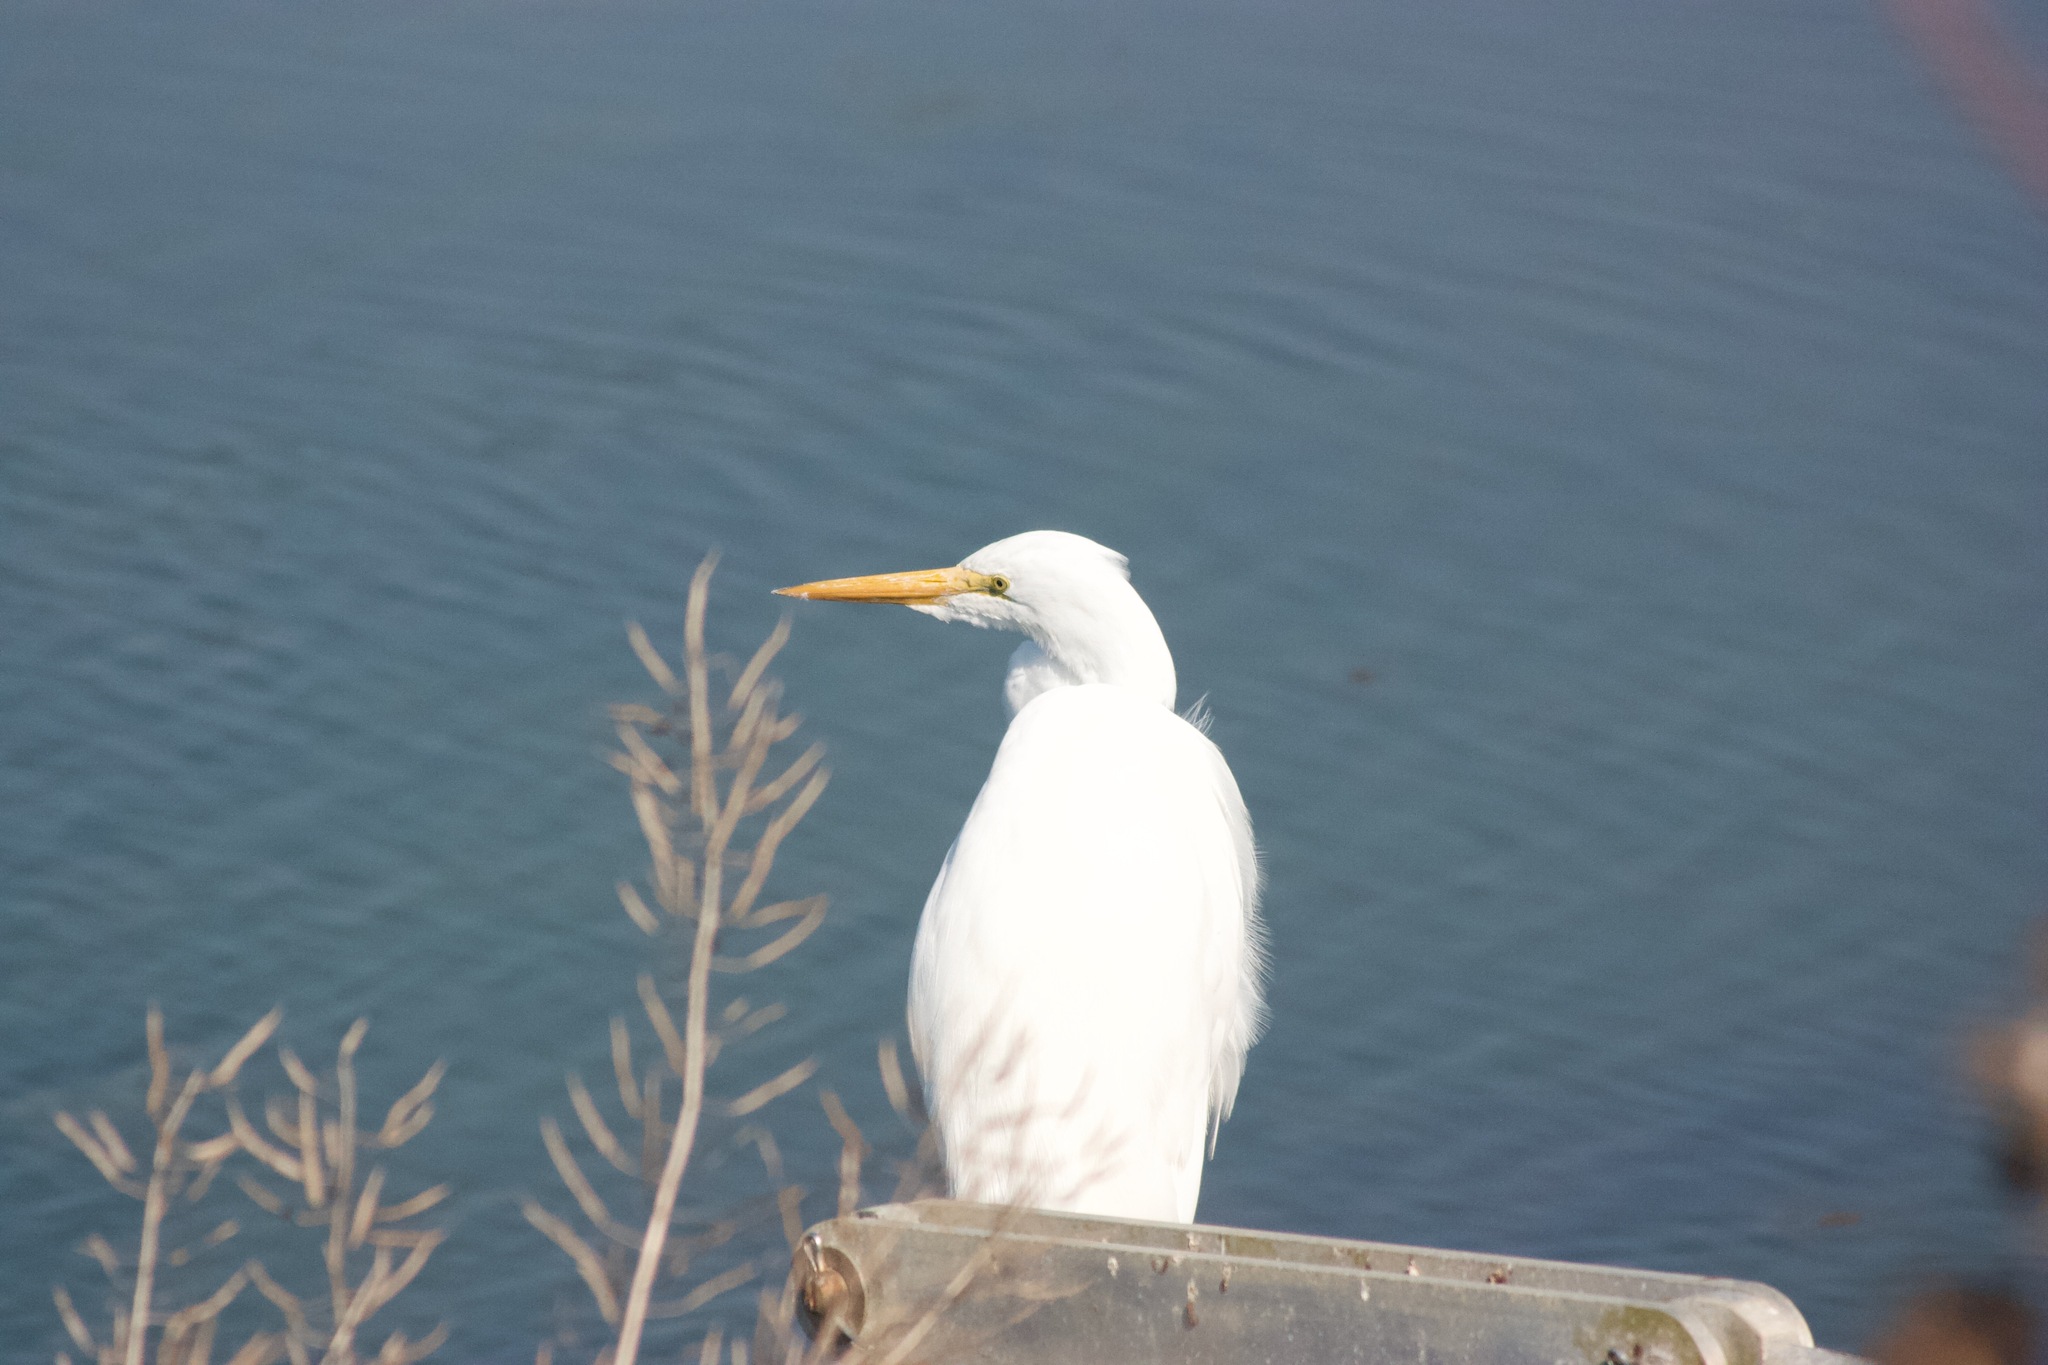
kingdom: Animalia
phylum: Chordata
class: Aves
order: Pelecaniformes
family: Ardeidae
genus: Ardea
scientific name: Ardea alba
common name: Great egret
